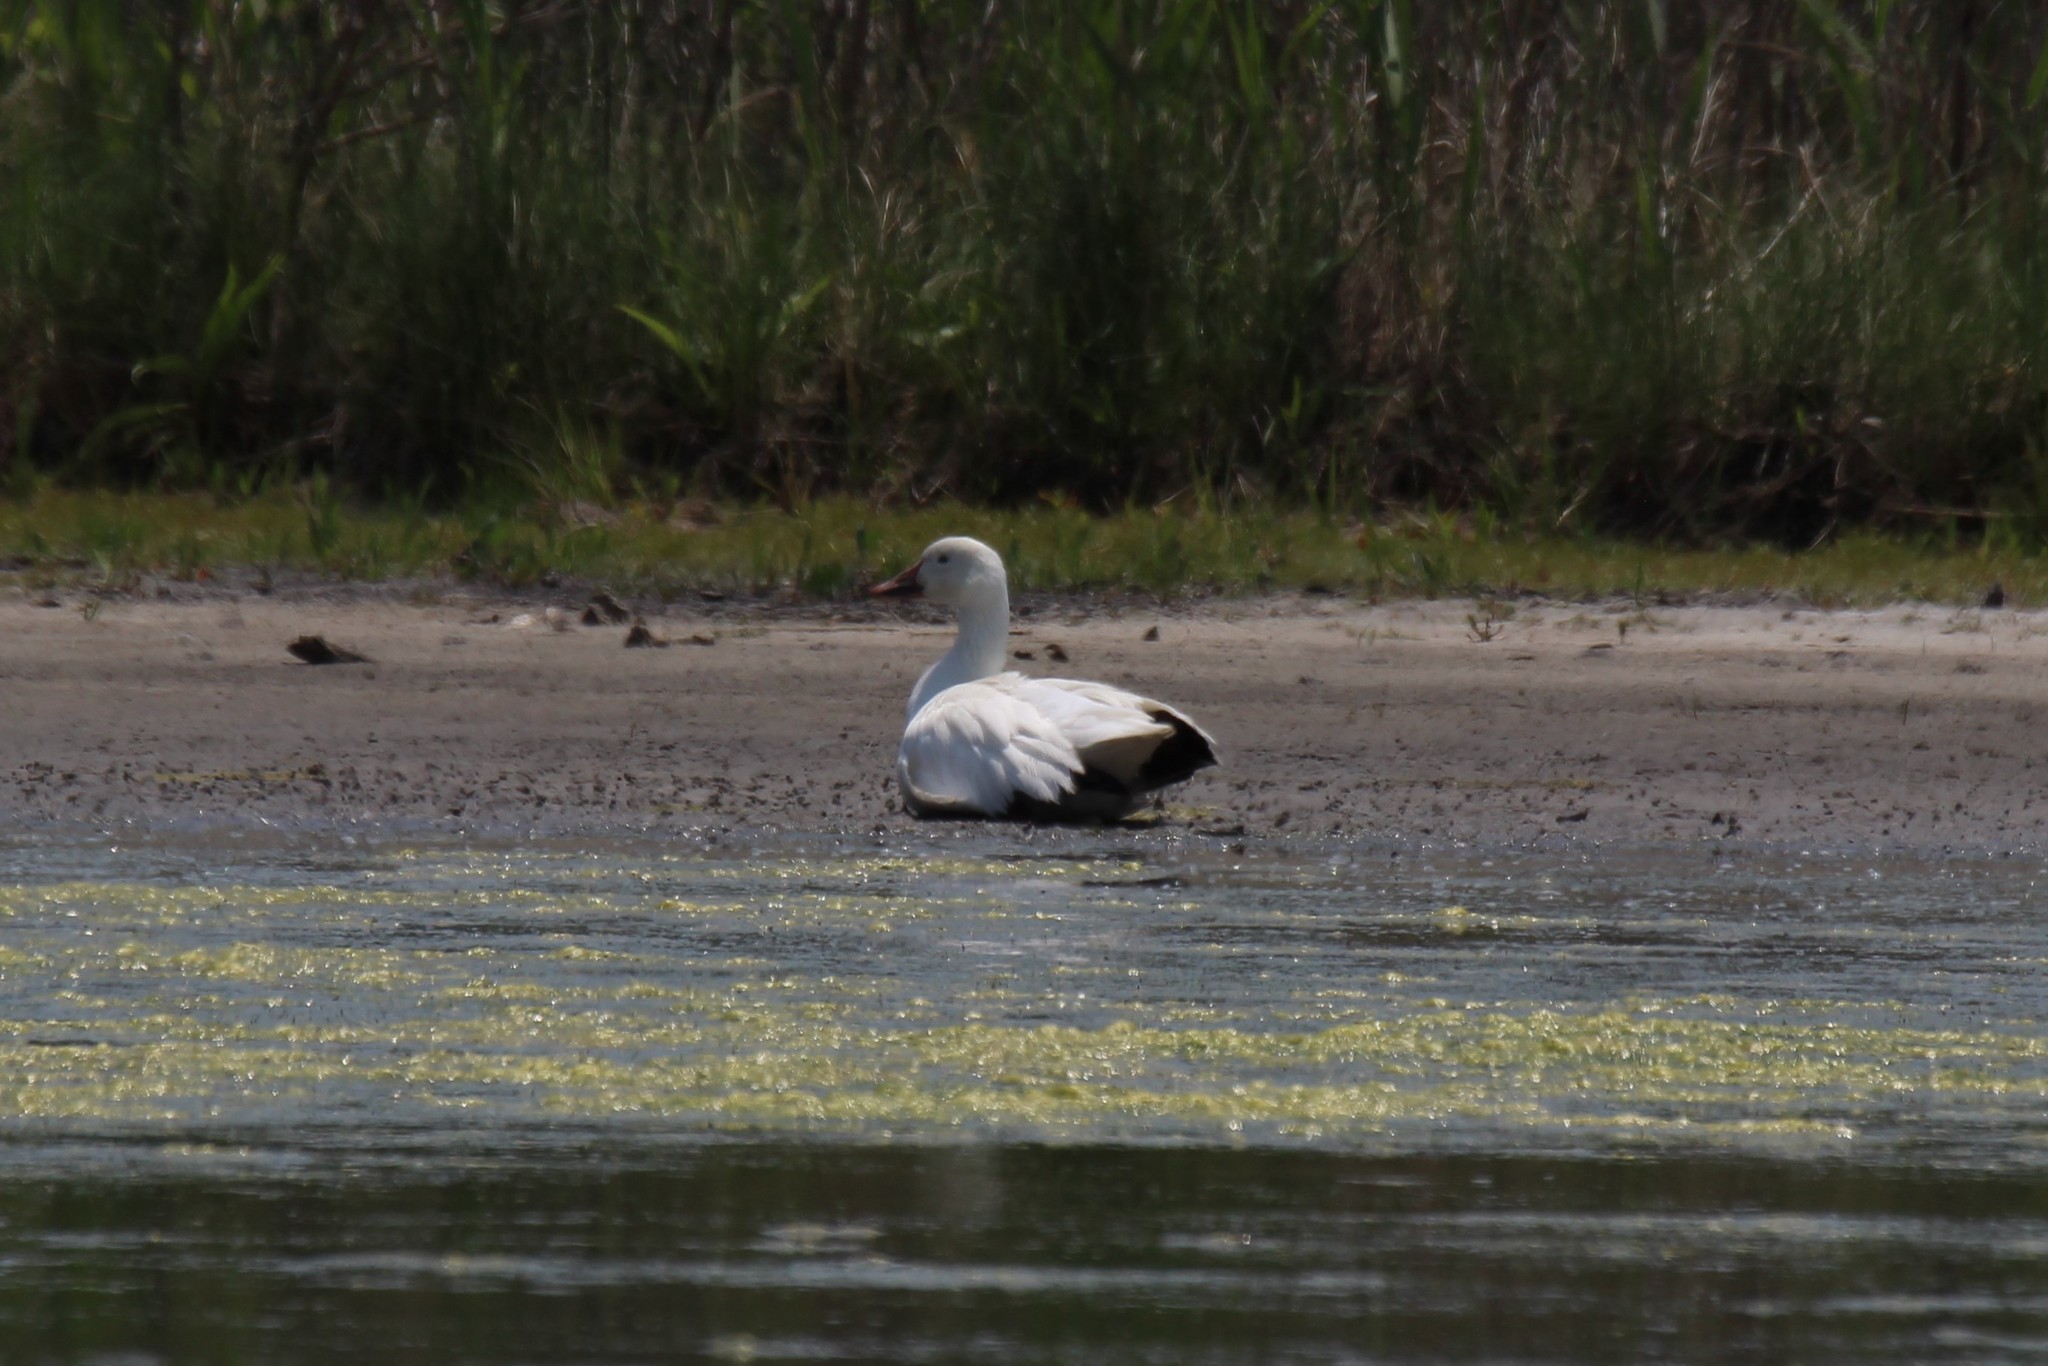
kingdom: Animalia
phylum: Chordata
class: Aves
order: Anseriformes
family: Anatidae
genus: Anser
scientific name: Anser caerulescens
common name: Snow goose
